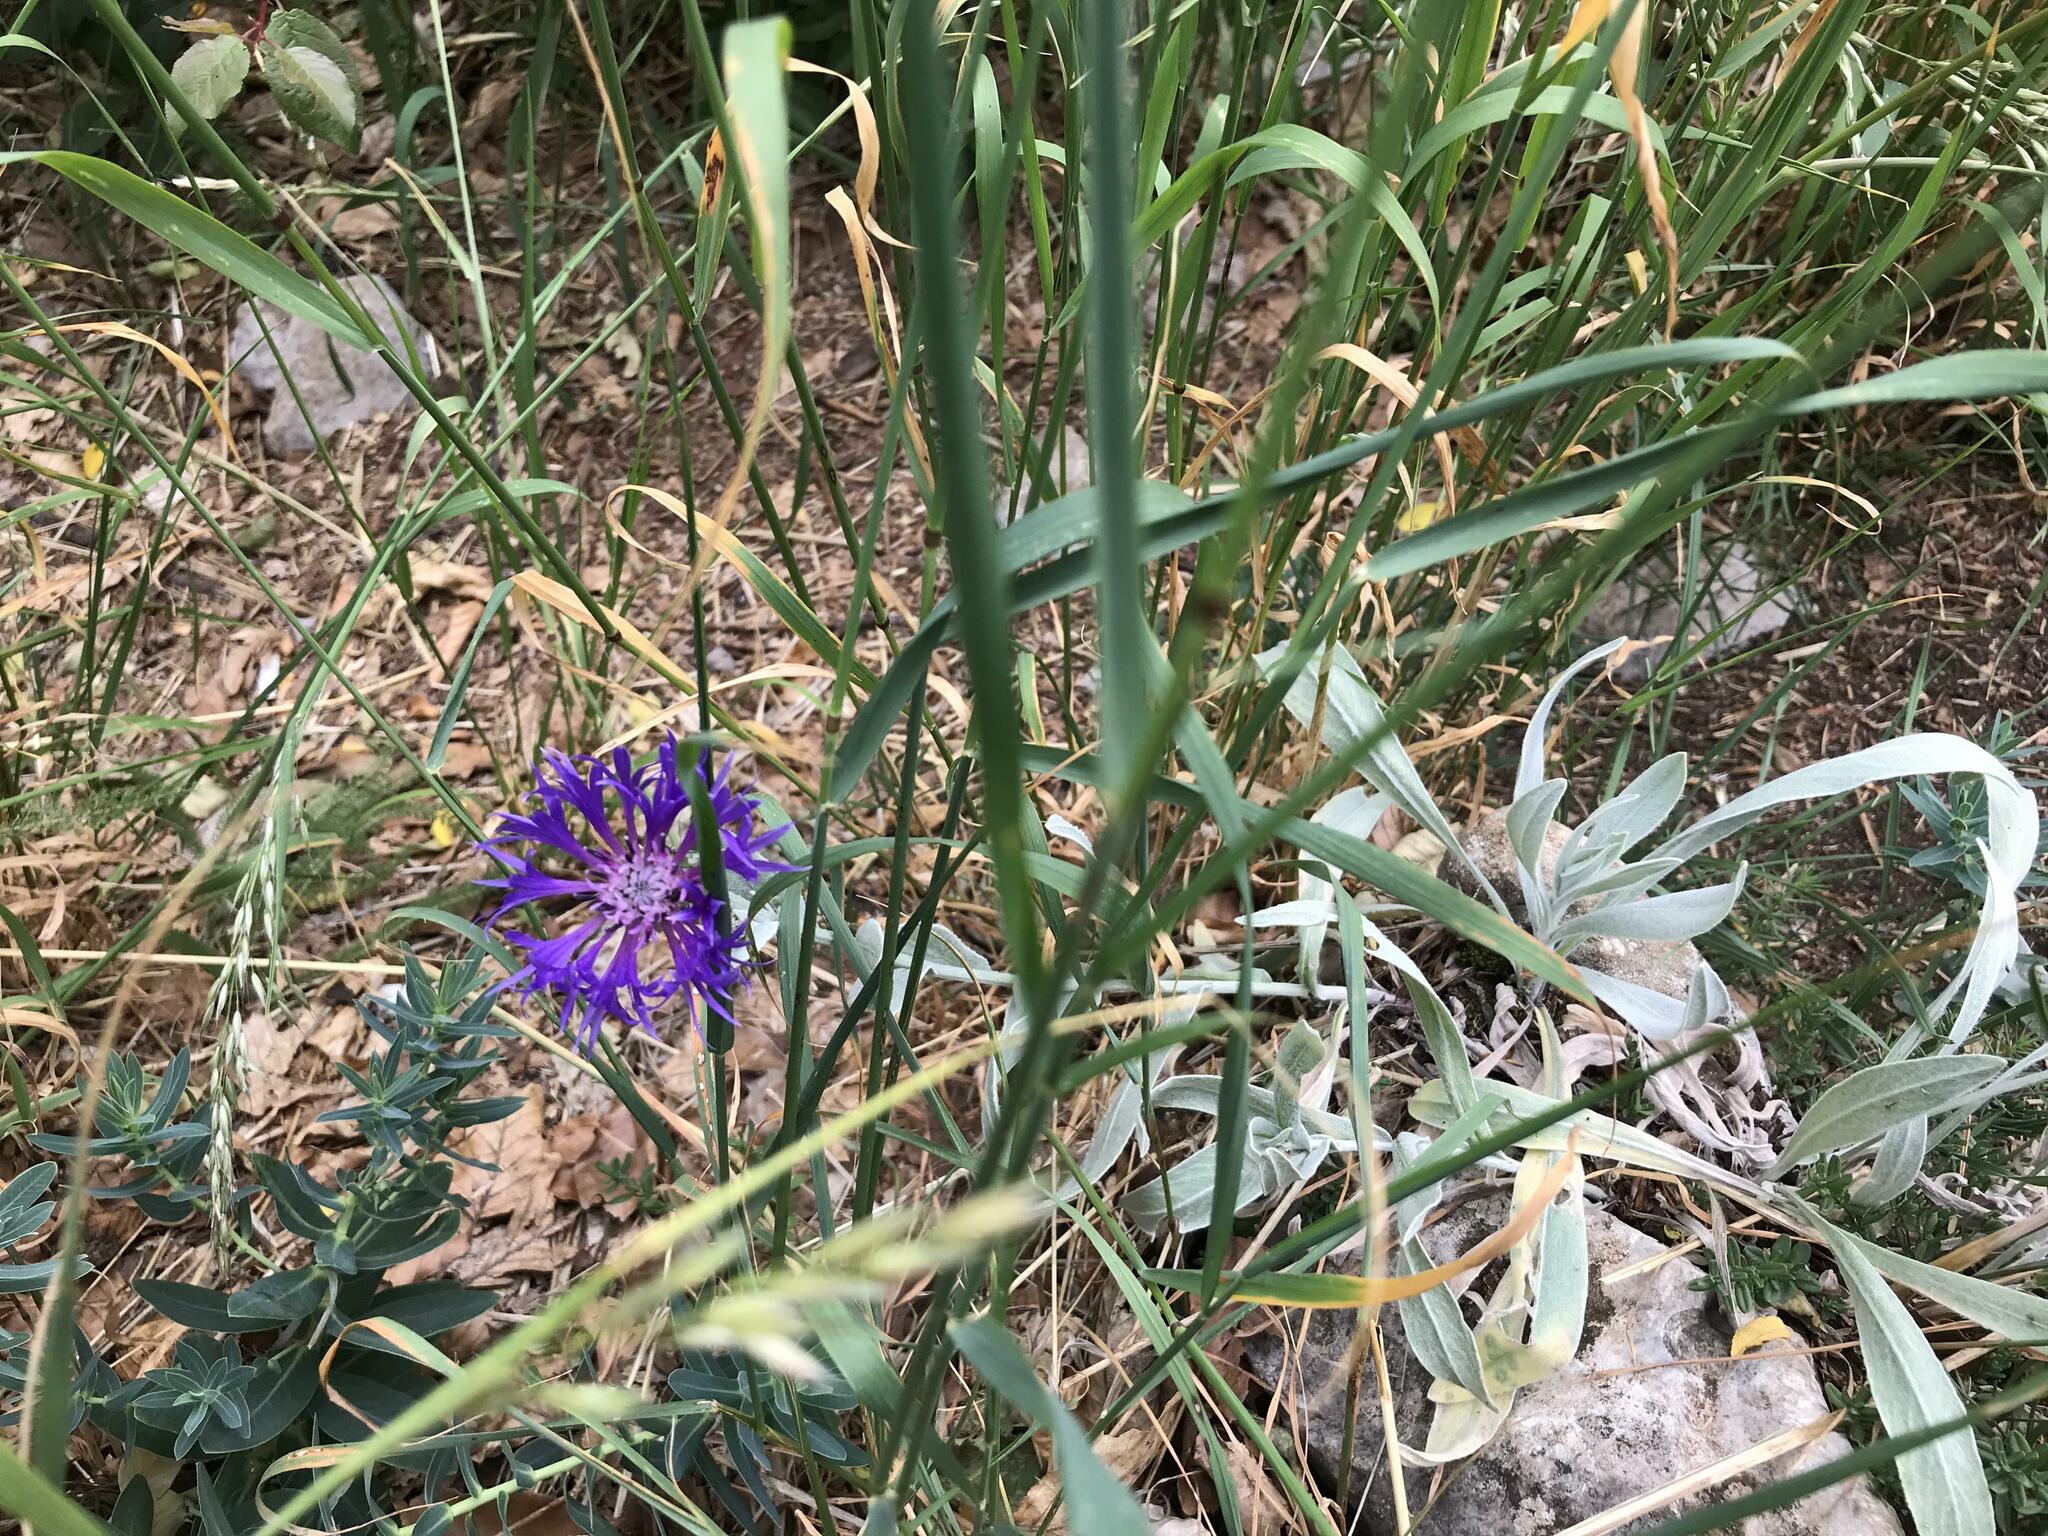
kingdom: Plantae
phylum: Tracheophyta
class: Magnoliopsida
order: Asterales
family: Asteraceae
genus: Centaurea
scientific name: Centaurea fuscomarginata
